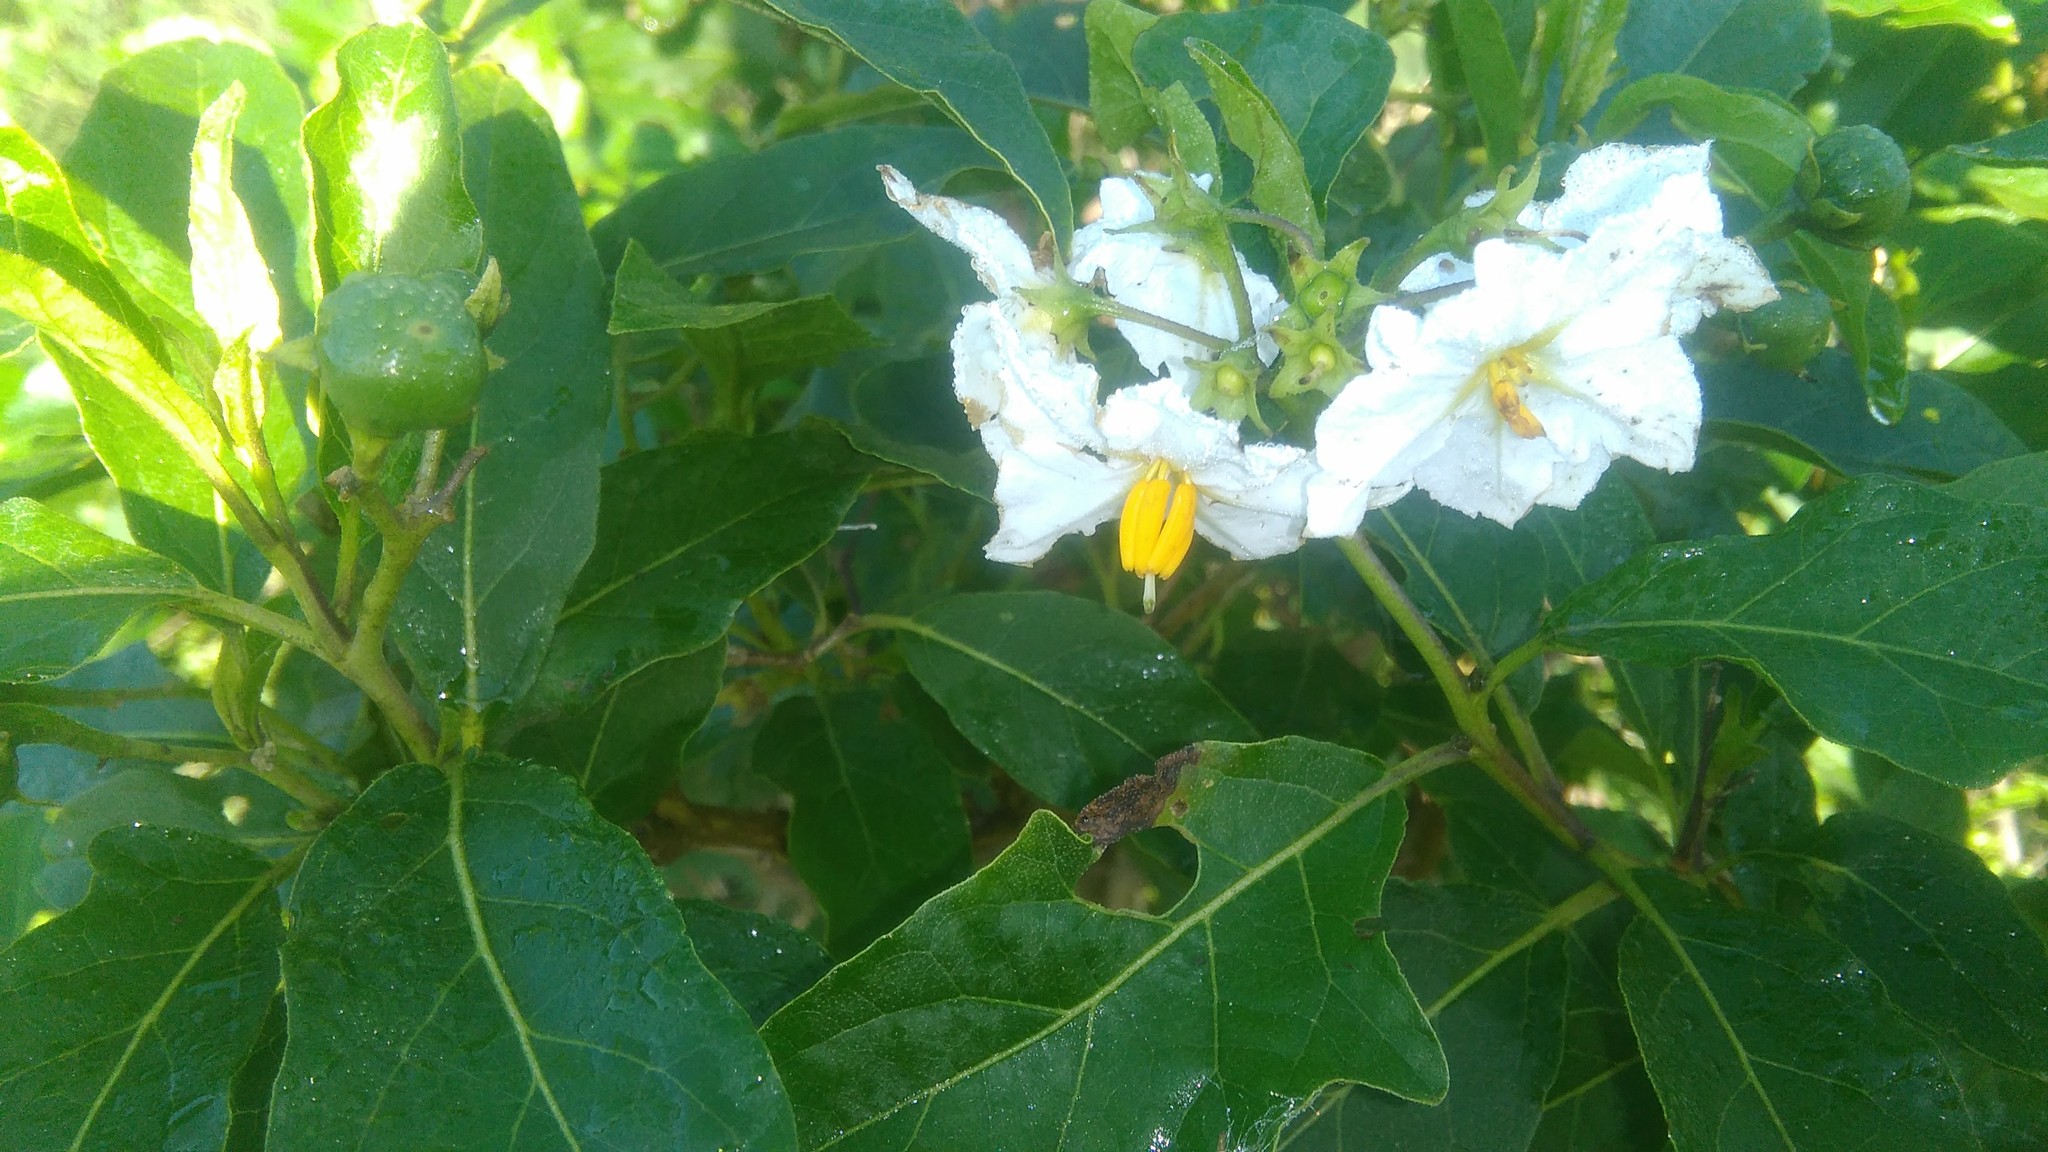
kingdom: Plantae
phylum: Tracheophyta
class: Magnoliopsida
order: Solanales
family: Solanaceae
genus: Solanum
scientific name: Solanum bonariense
